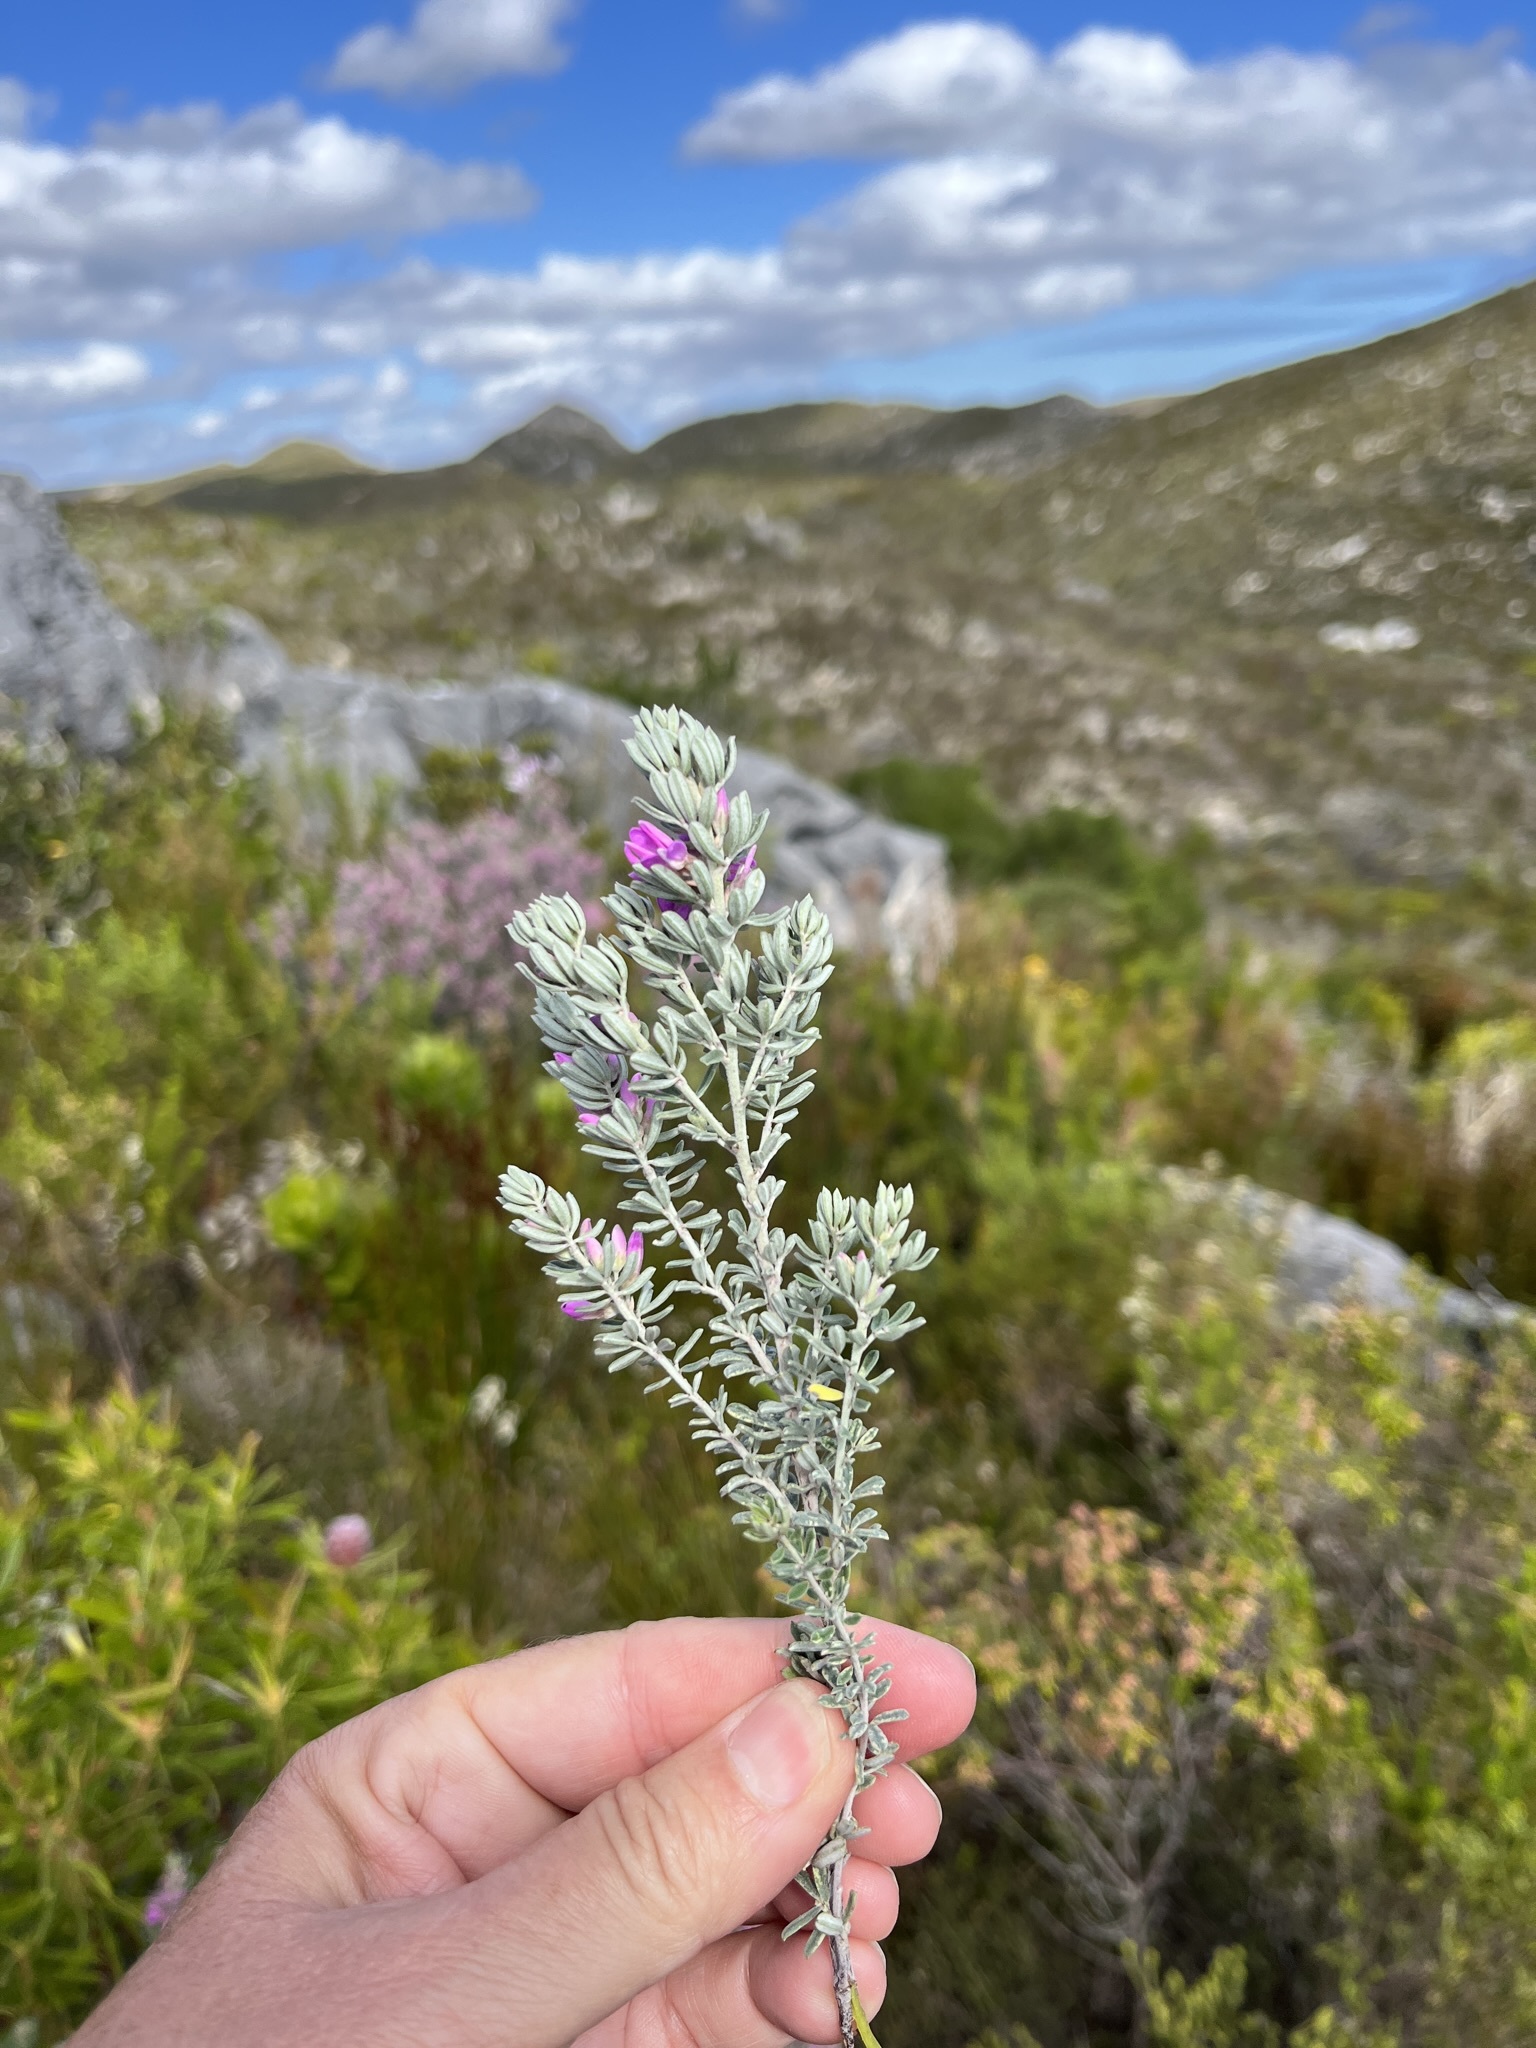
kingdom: Plantae
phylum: Tracheophyta
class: Magnoliopsida
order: Fabales
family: Fabaceae
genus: Indigofera
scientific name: Indigofera brachystachya
